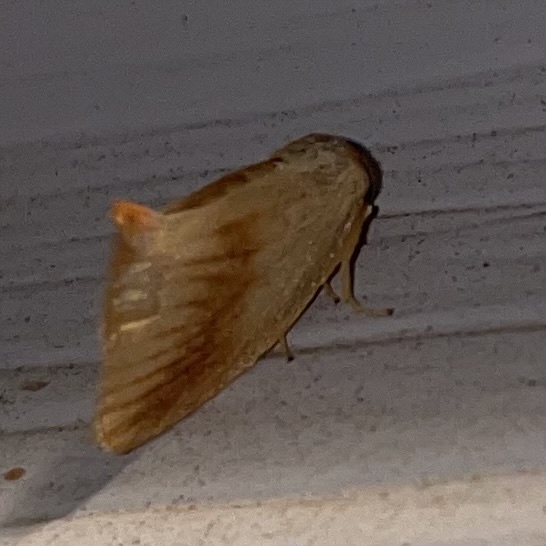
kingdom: Animalia
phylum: Arthropoda
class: Insecta
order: Lepidoptera
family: Limacodidae
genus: Tortricidia
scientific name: Tortricidia testacea
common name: Early button slug moth
